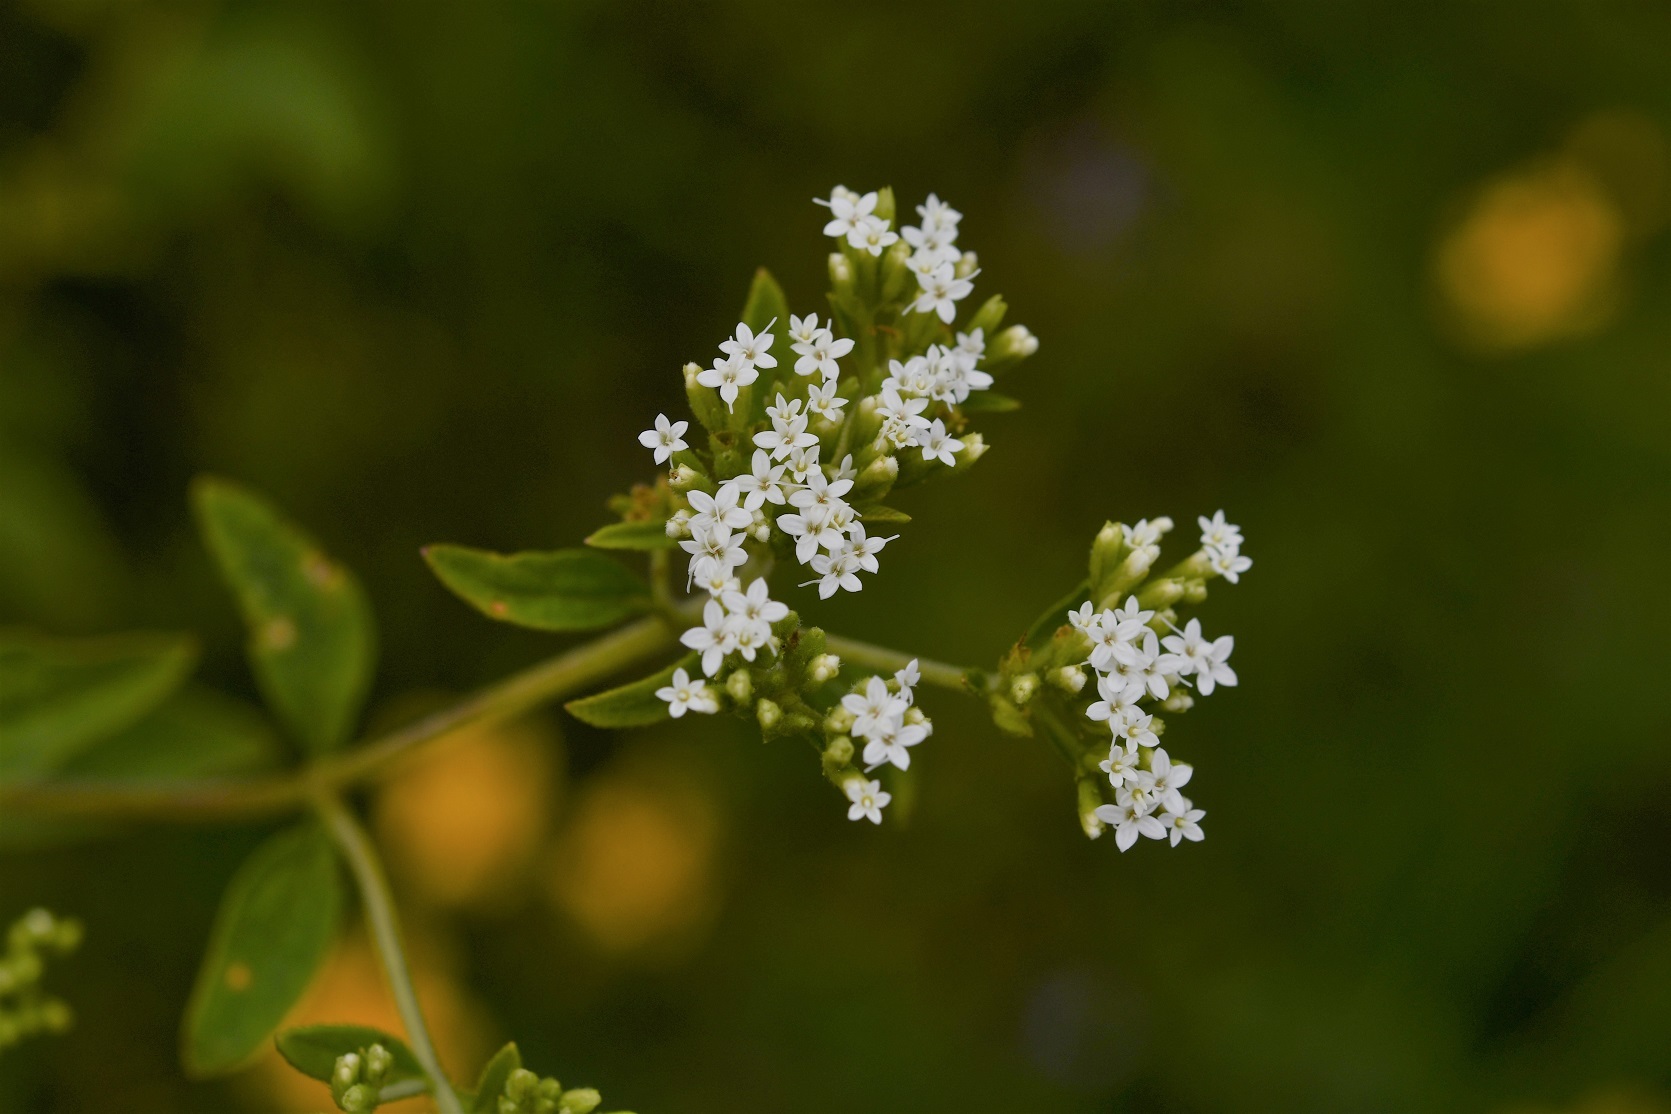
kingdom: Plantae
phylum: Tracheophyta
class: Magnoliopsida
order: Asterales
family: Asteraceae
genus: Stevia
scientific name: Stevia ovata
